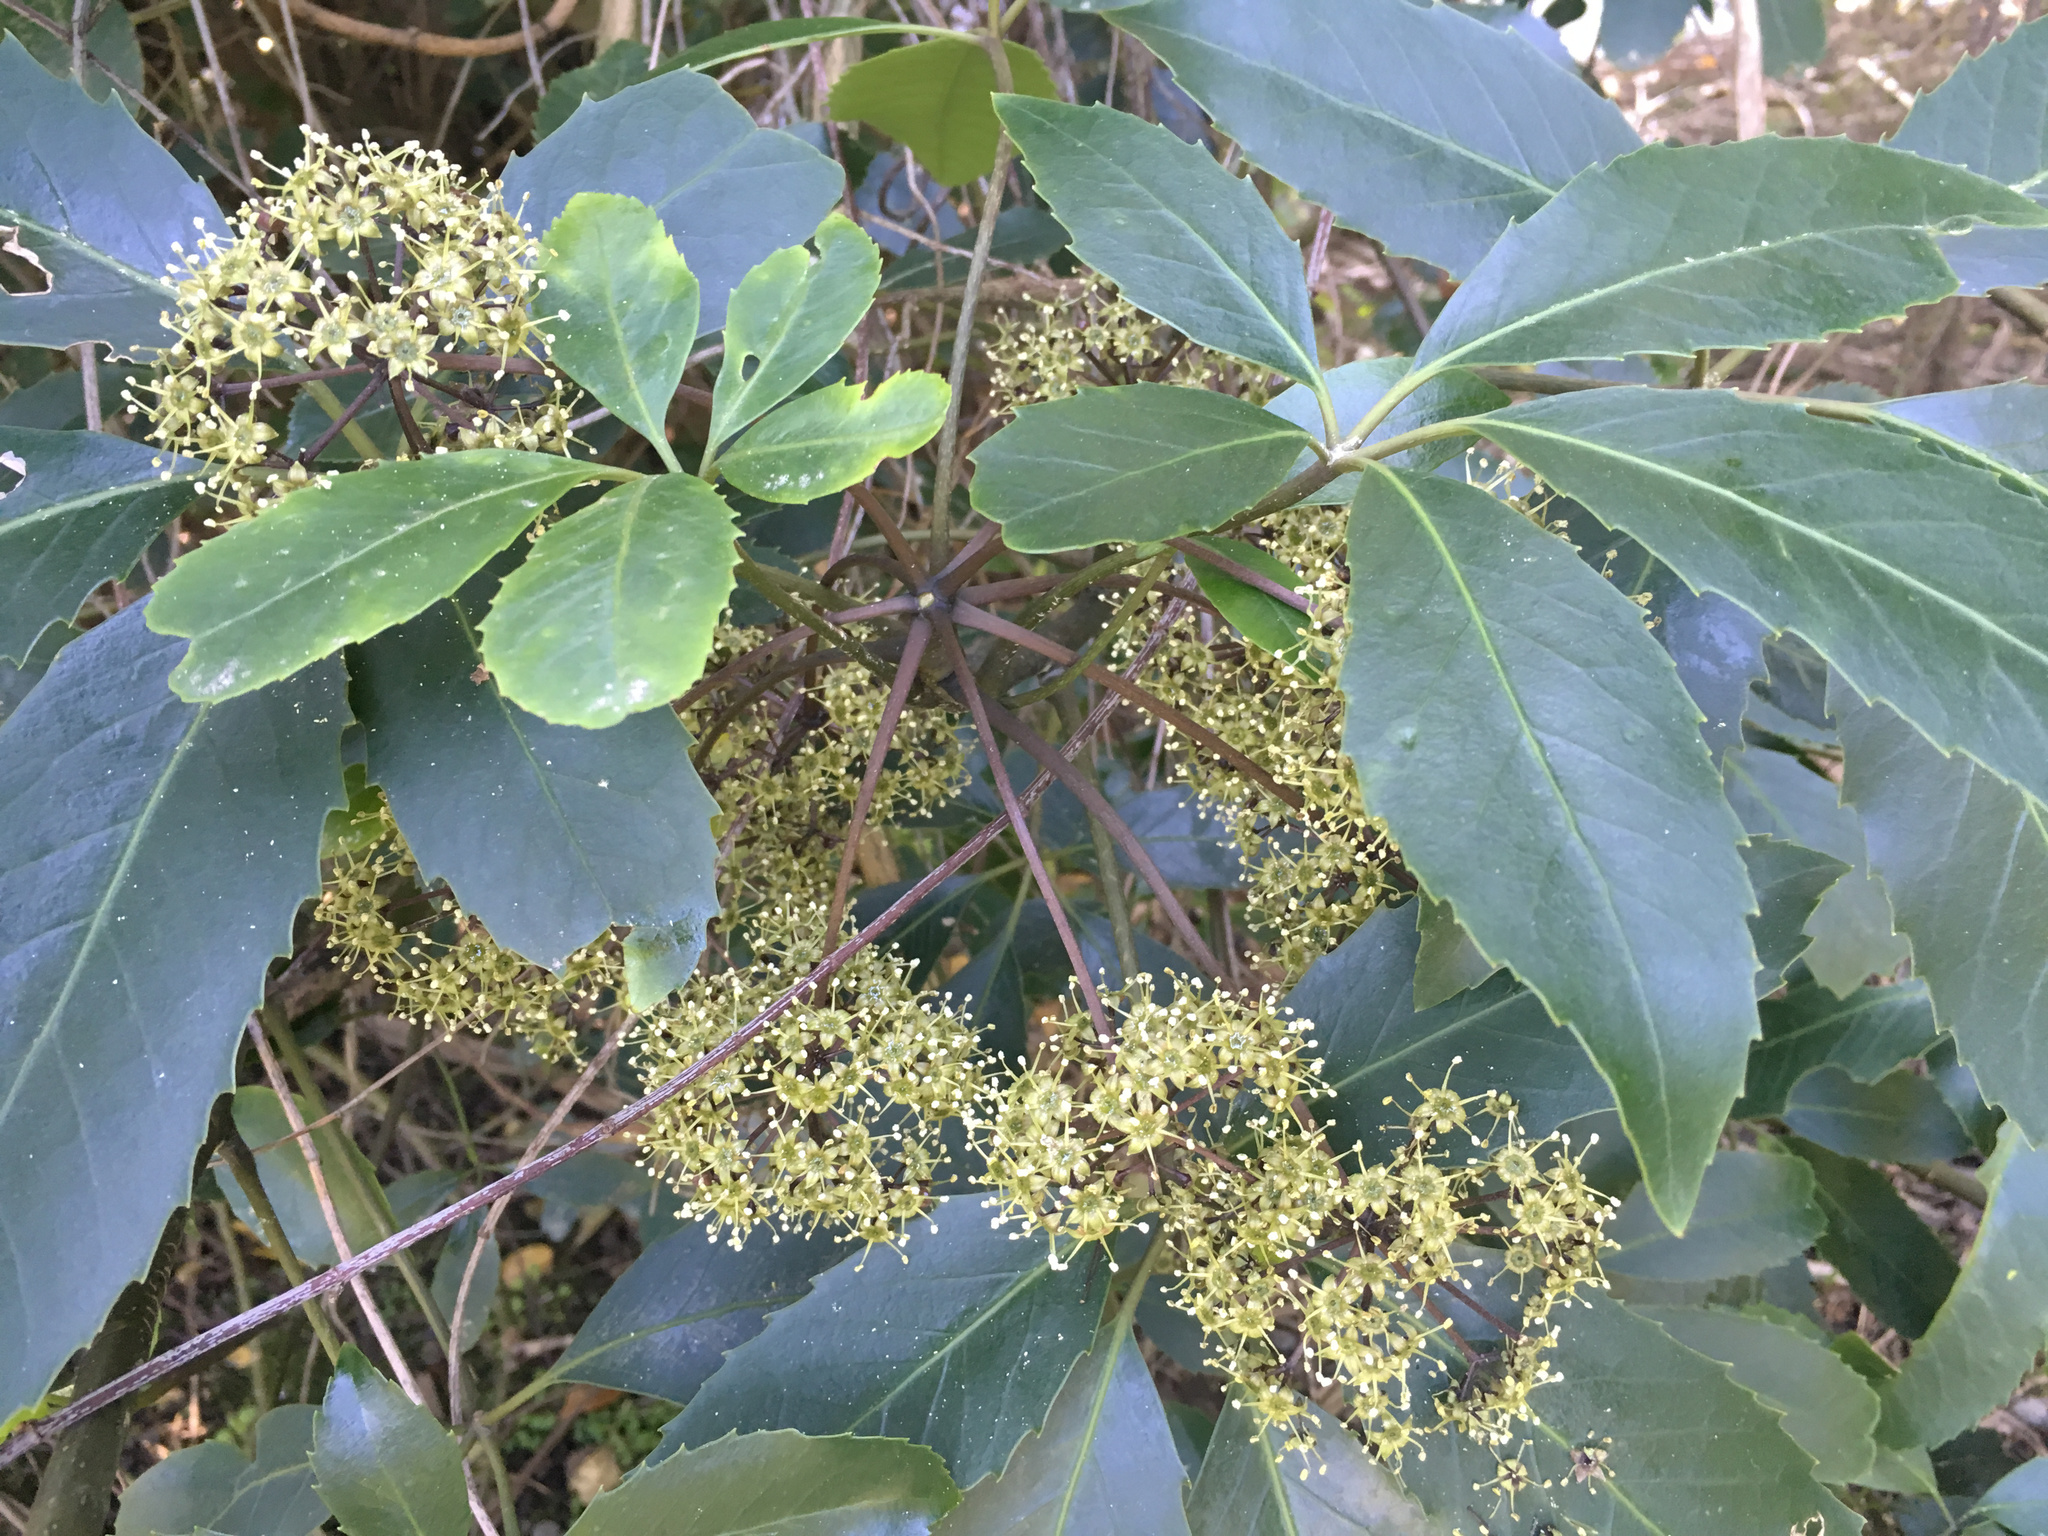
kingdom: Plantae
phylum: Tracheophyta
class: Magnoliopsida
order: Apiales
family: Araliaceae
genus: Neopanax
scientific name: Neopanax arboreus
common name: Five-fingers
